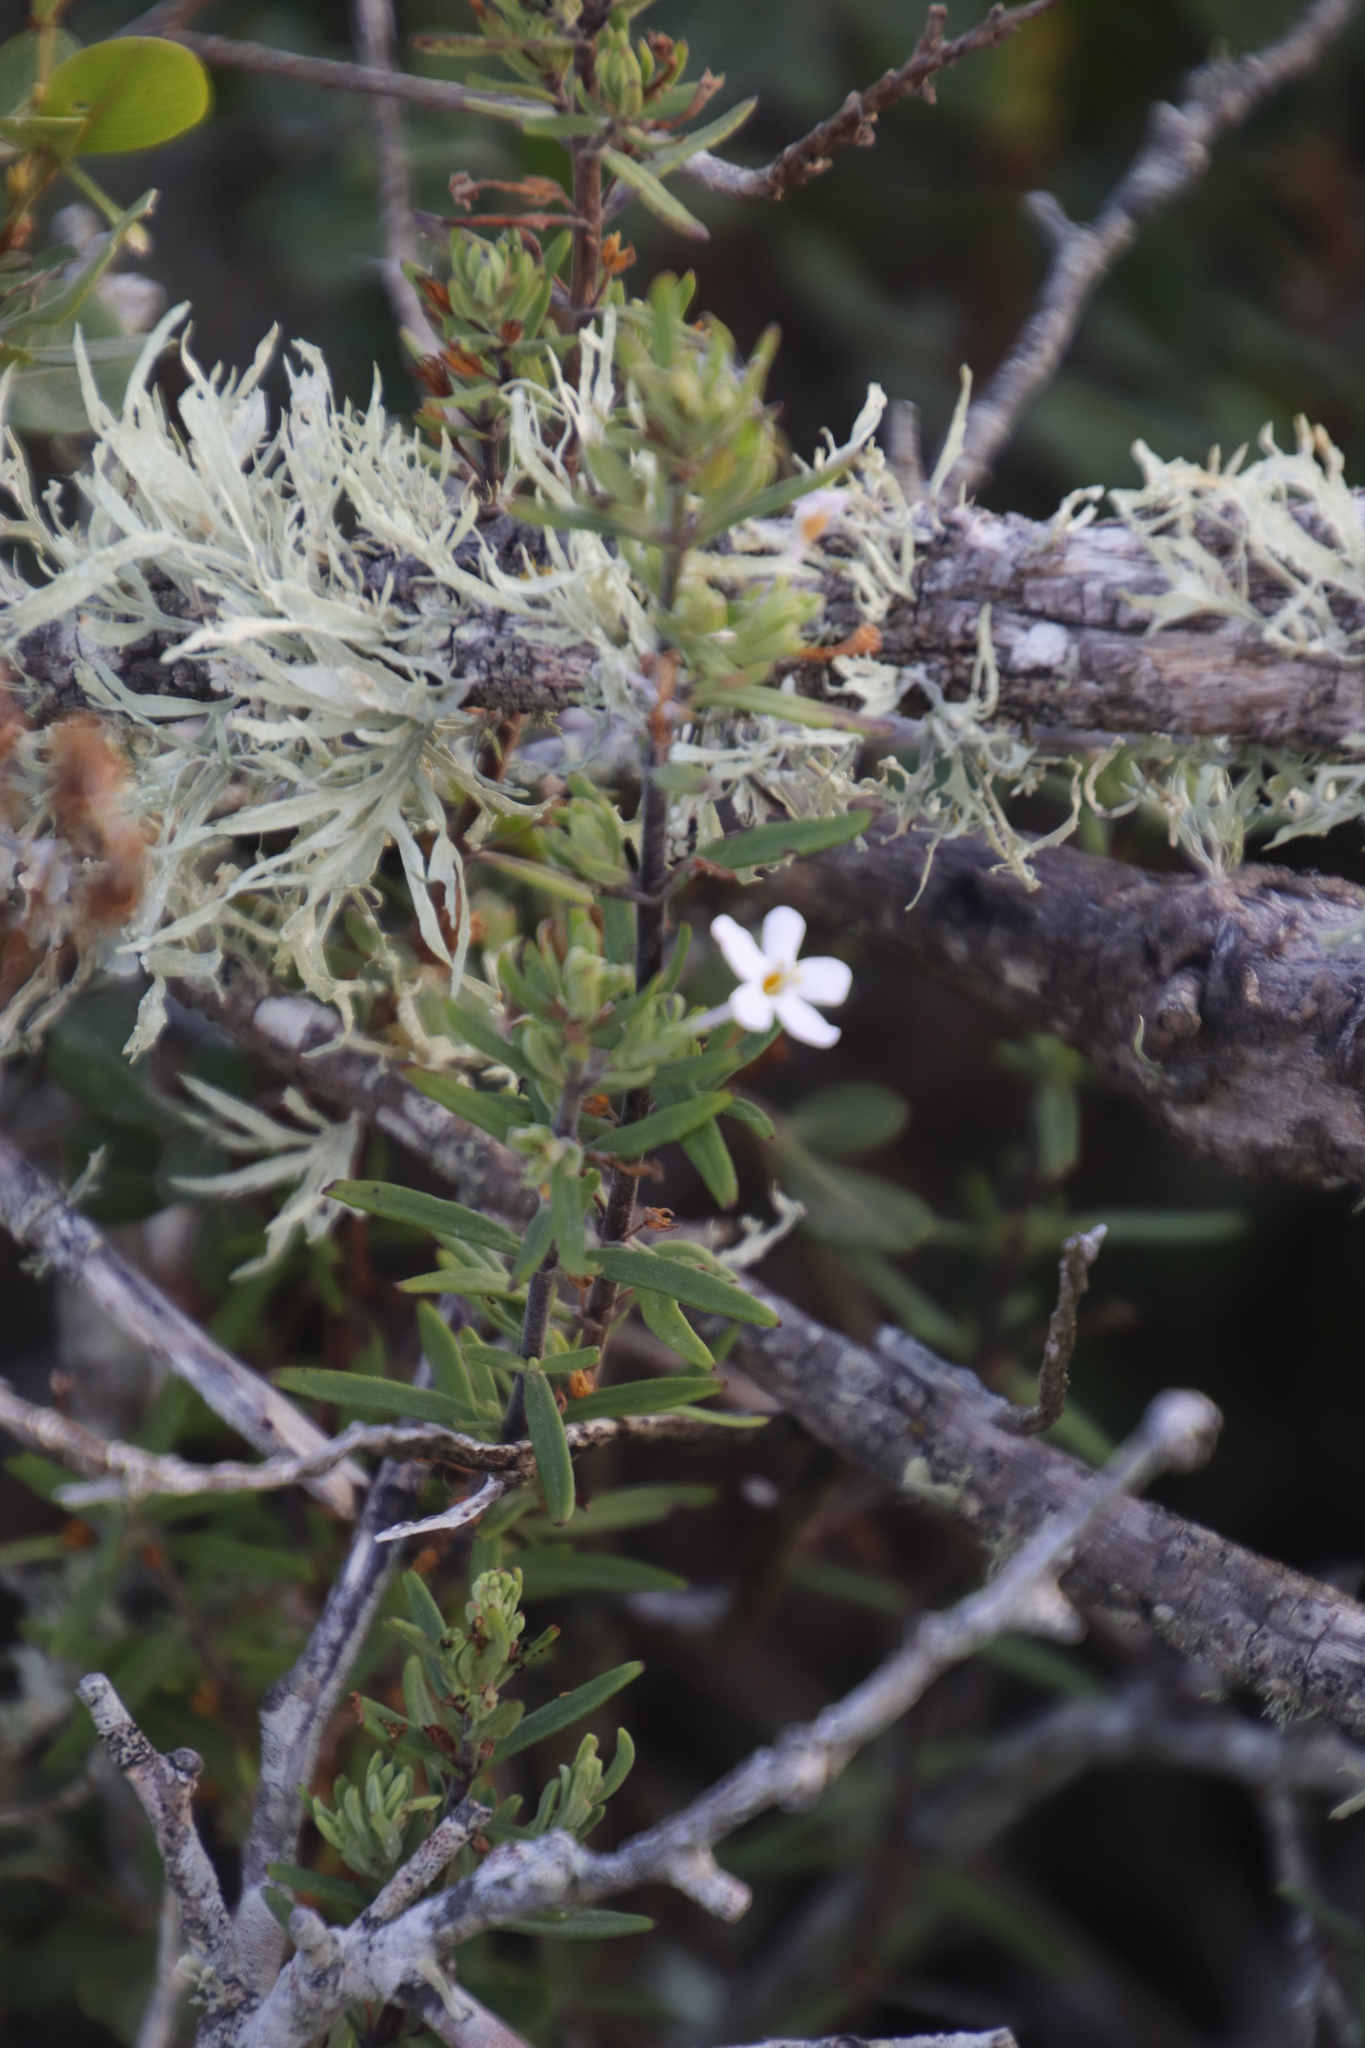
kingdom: Plantae
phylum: Tracheophyta
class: Magnoliopsida
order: Lamiales
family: Scrophulariaceae
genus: Chaenostoma
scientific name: Chaenostoma revolutum
